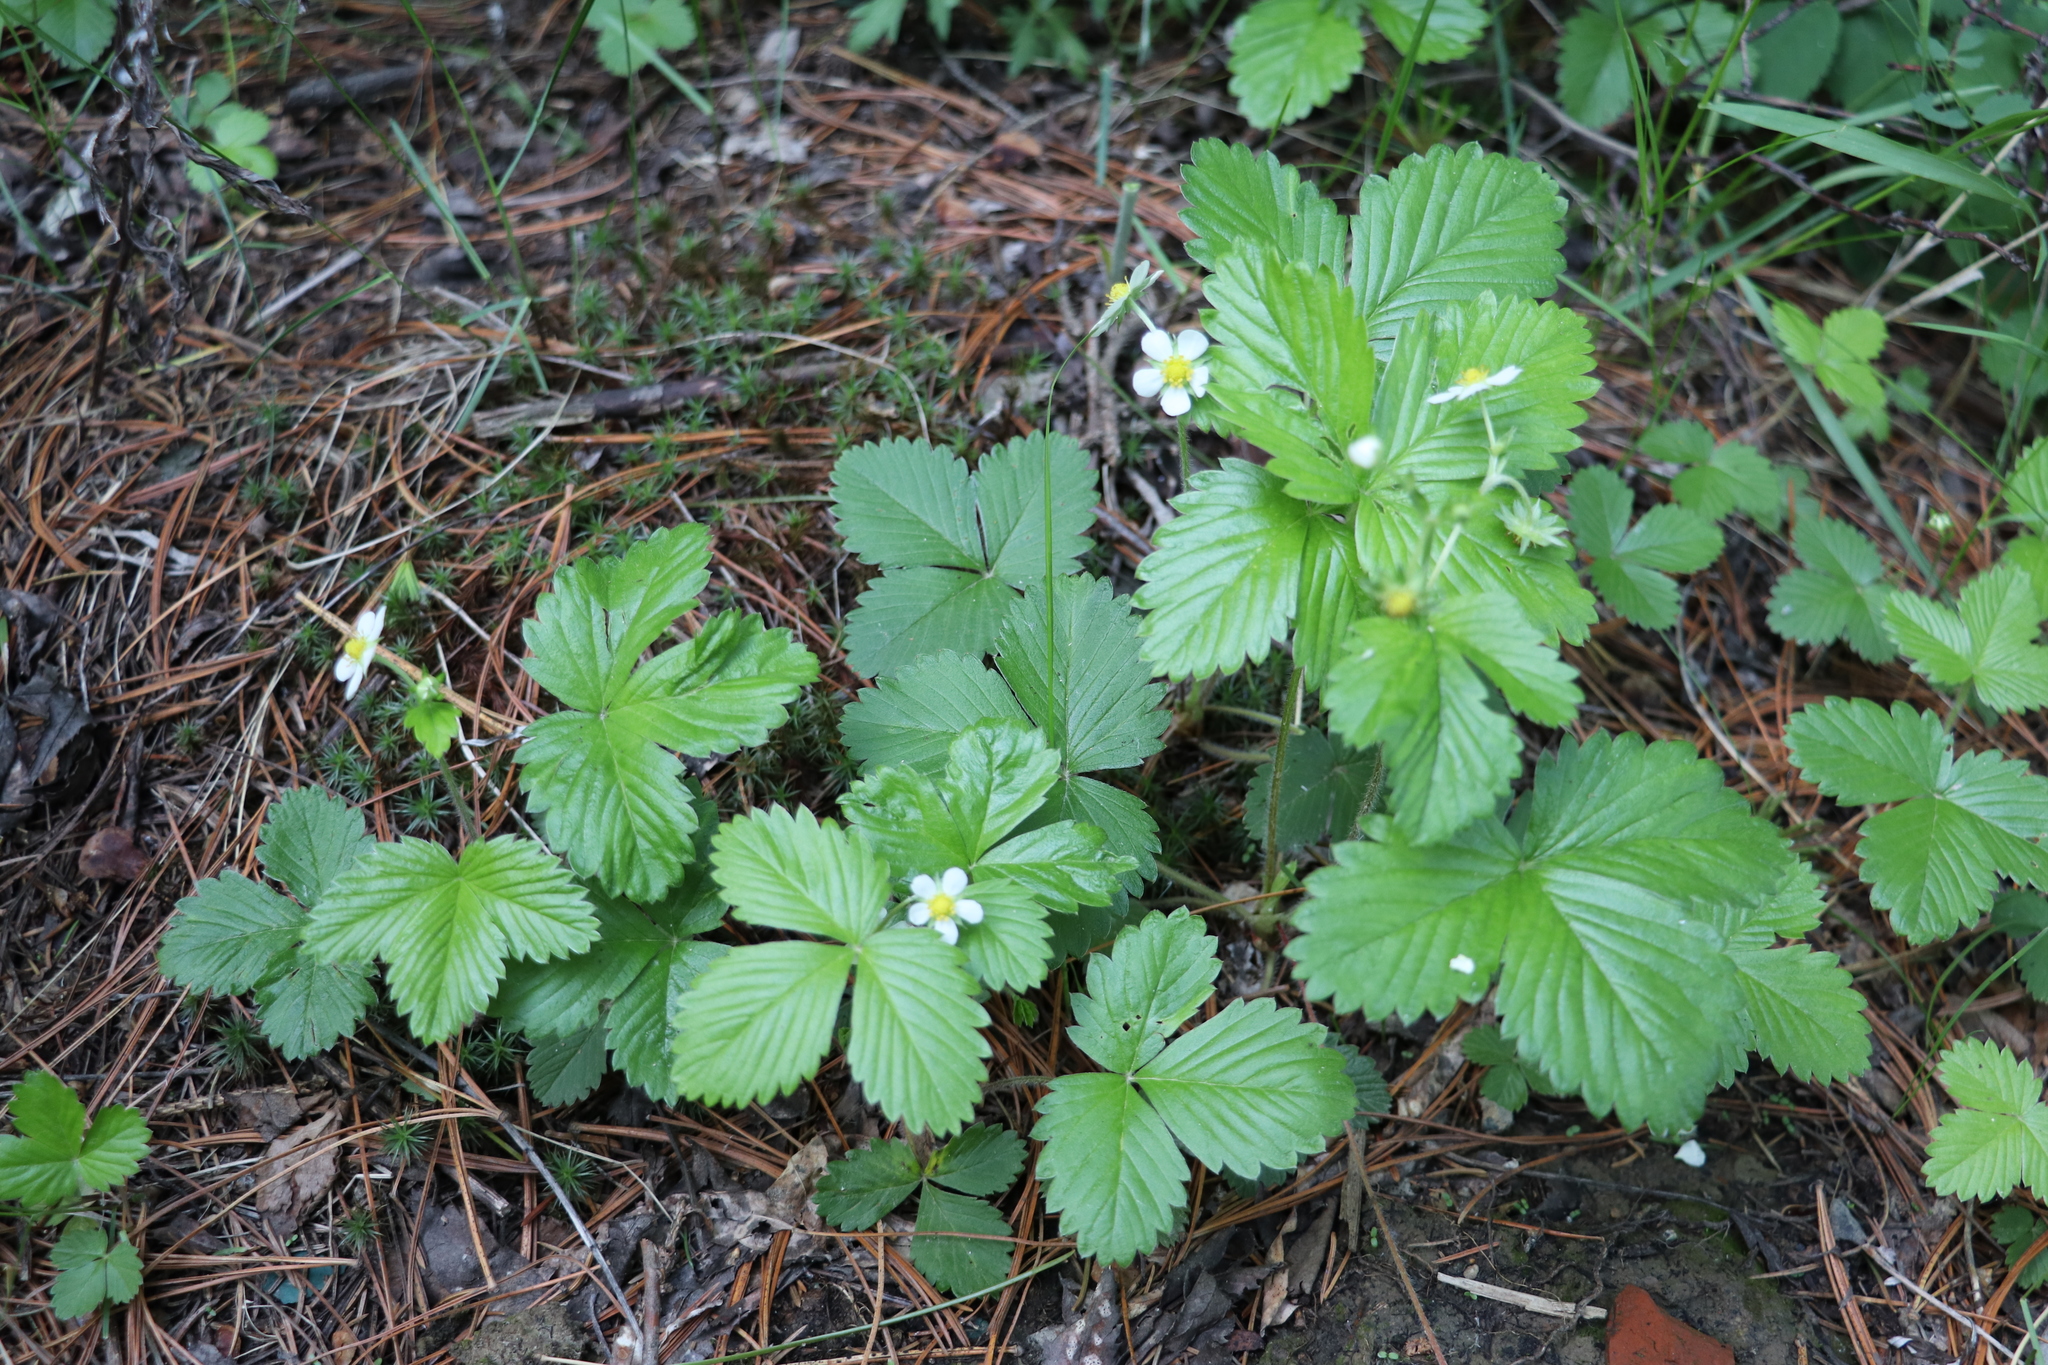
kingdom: Plantae
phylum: Tracheophyta
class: Magnoliopsida
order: Rosales
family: Rosaceae
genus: Fragaria
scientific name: Fragaria vesca
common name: Wild strawberry
